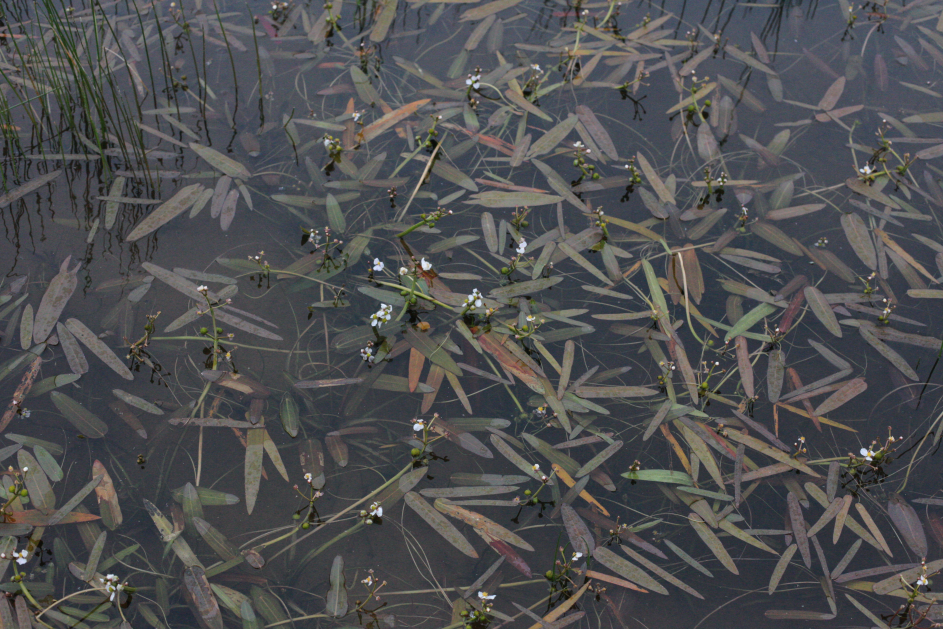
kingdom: Plantae
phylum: Tracheophyta
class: Liliopsida
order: Alismatales
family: Alismataceae
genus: Sagittaria
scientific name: Sagittaria natans
